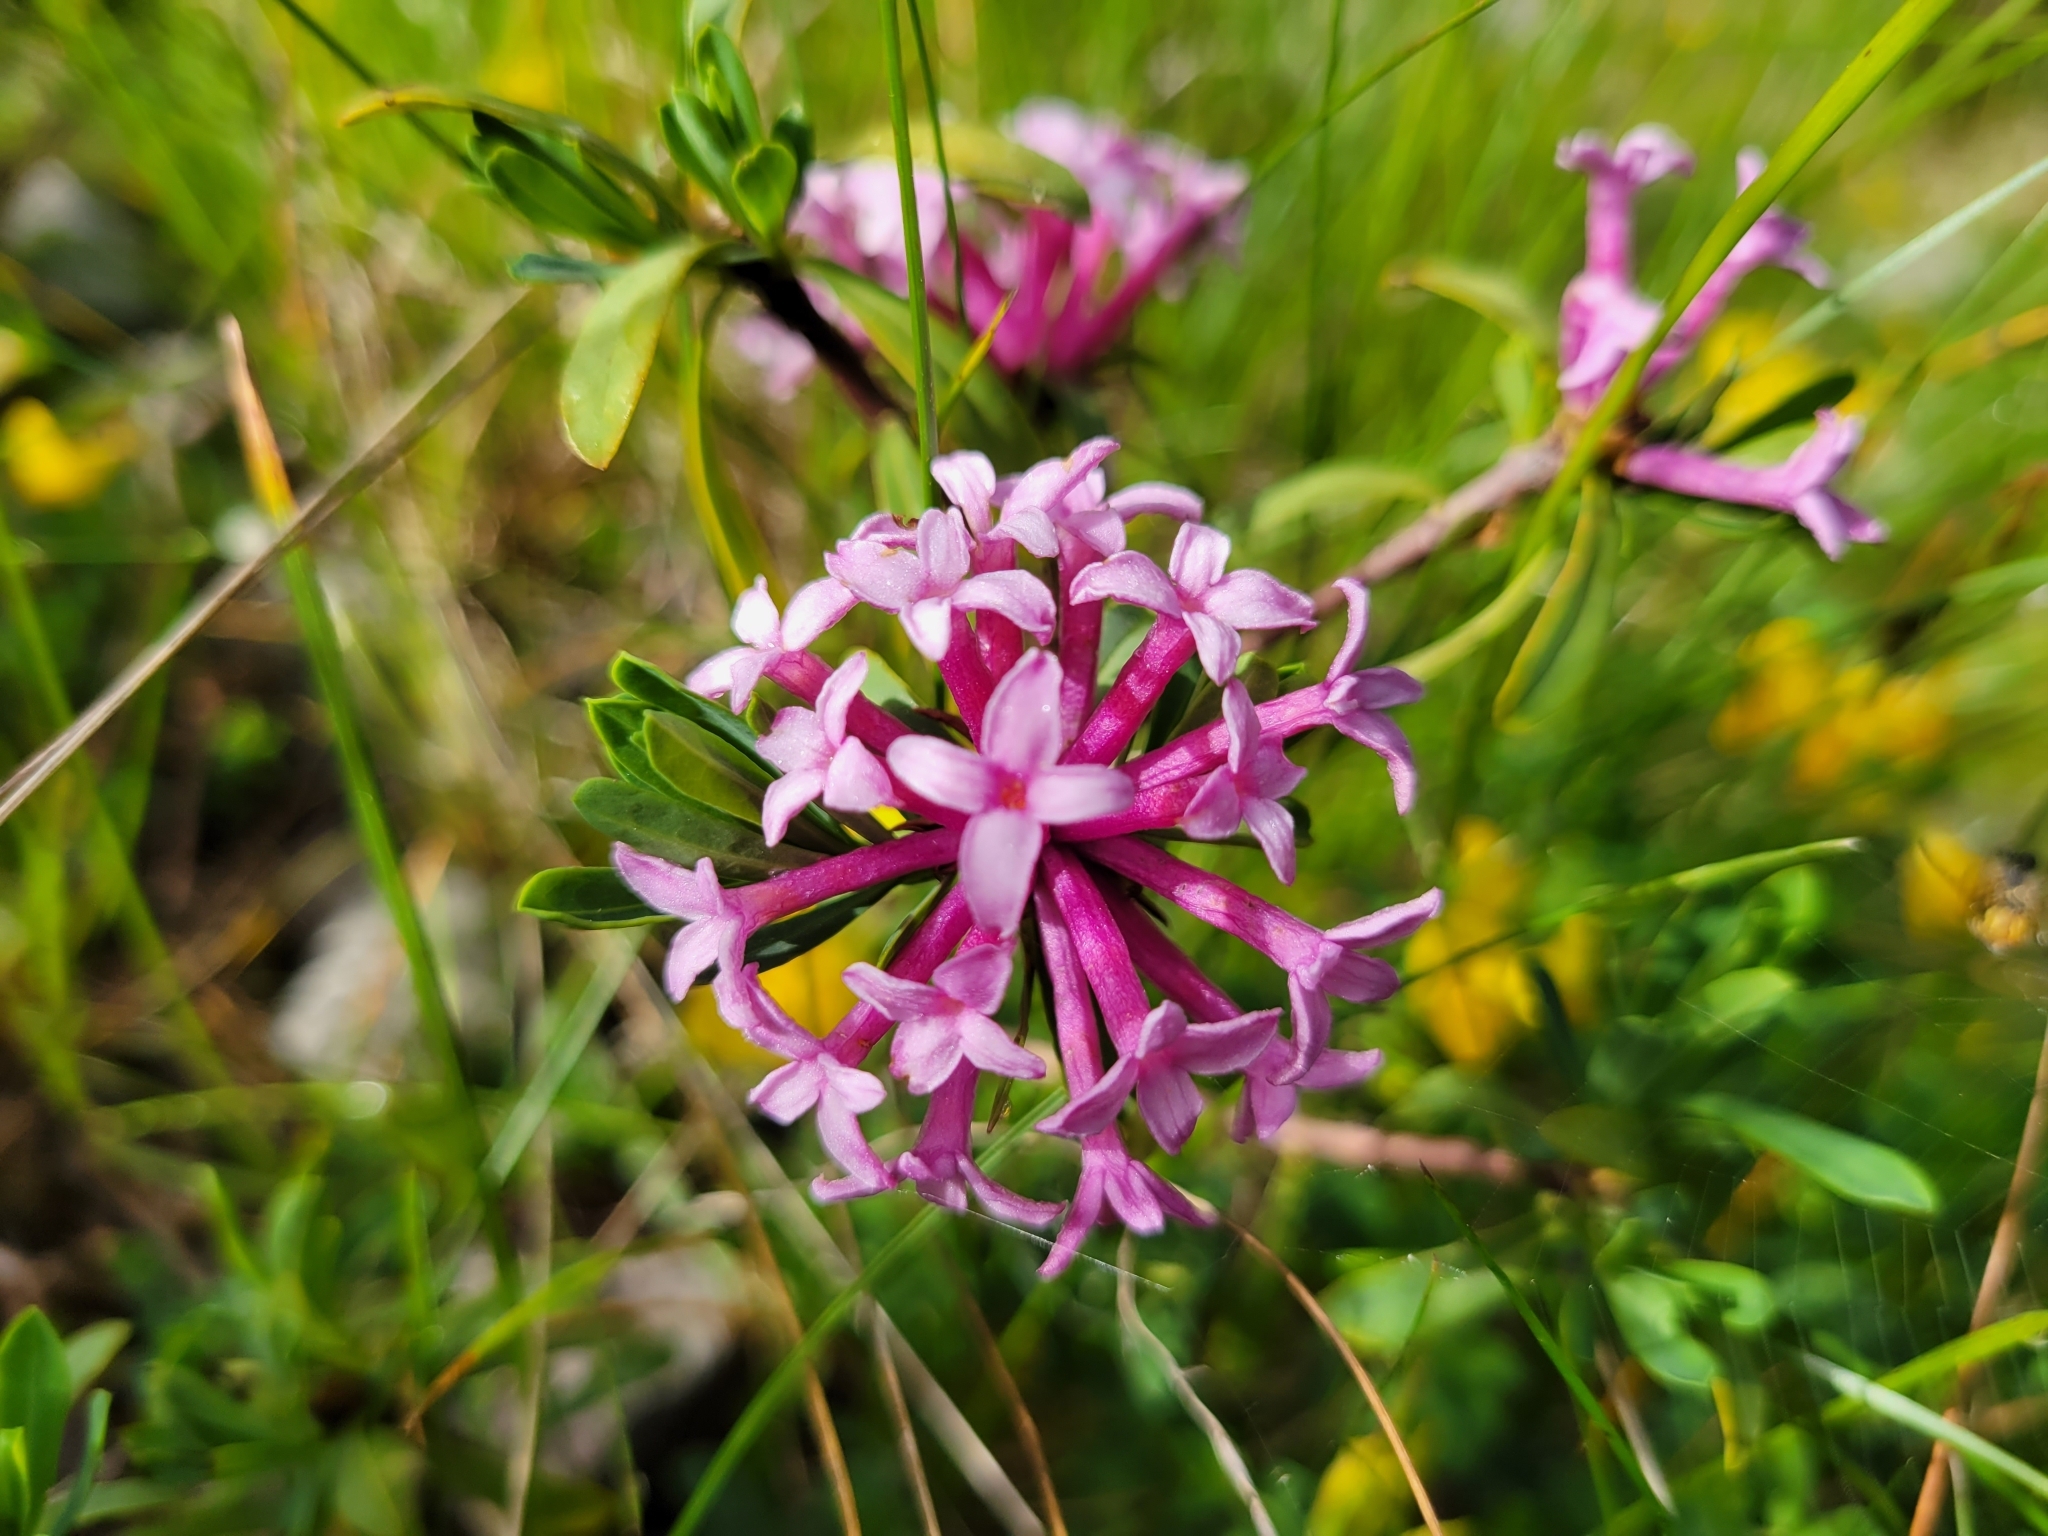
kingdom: Plantae
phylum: Tracheophyta
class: Magnoliopsida
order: Malvales
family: Thymelaeaceae
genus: Daphne
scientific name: Daphne striata
